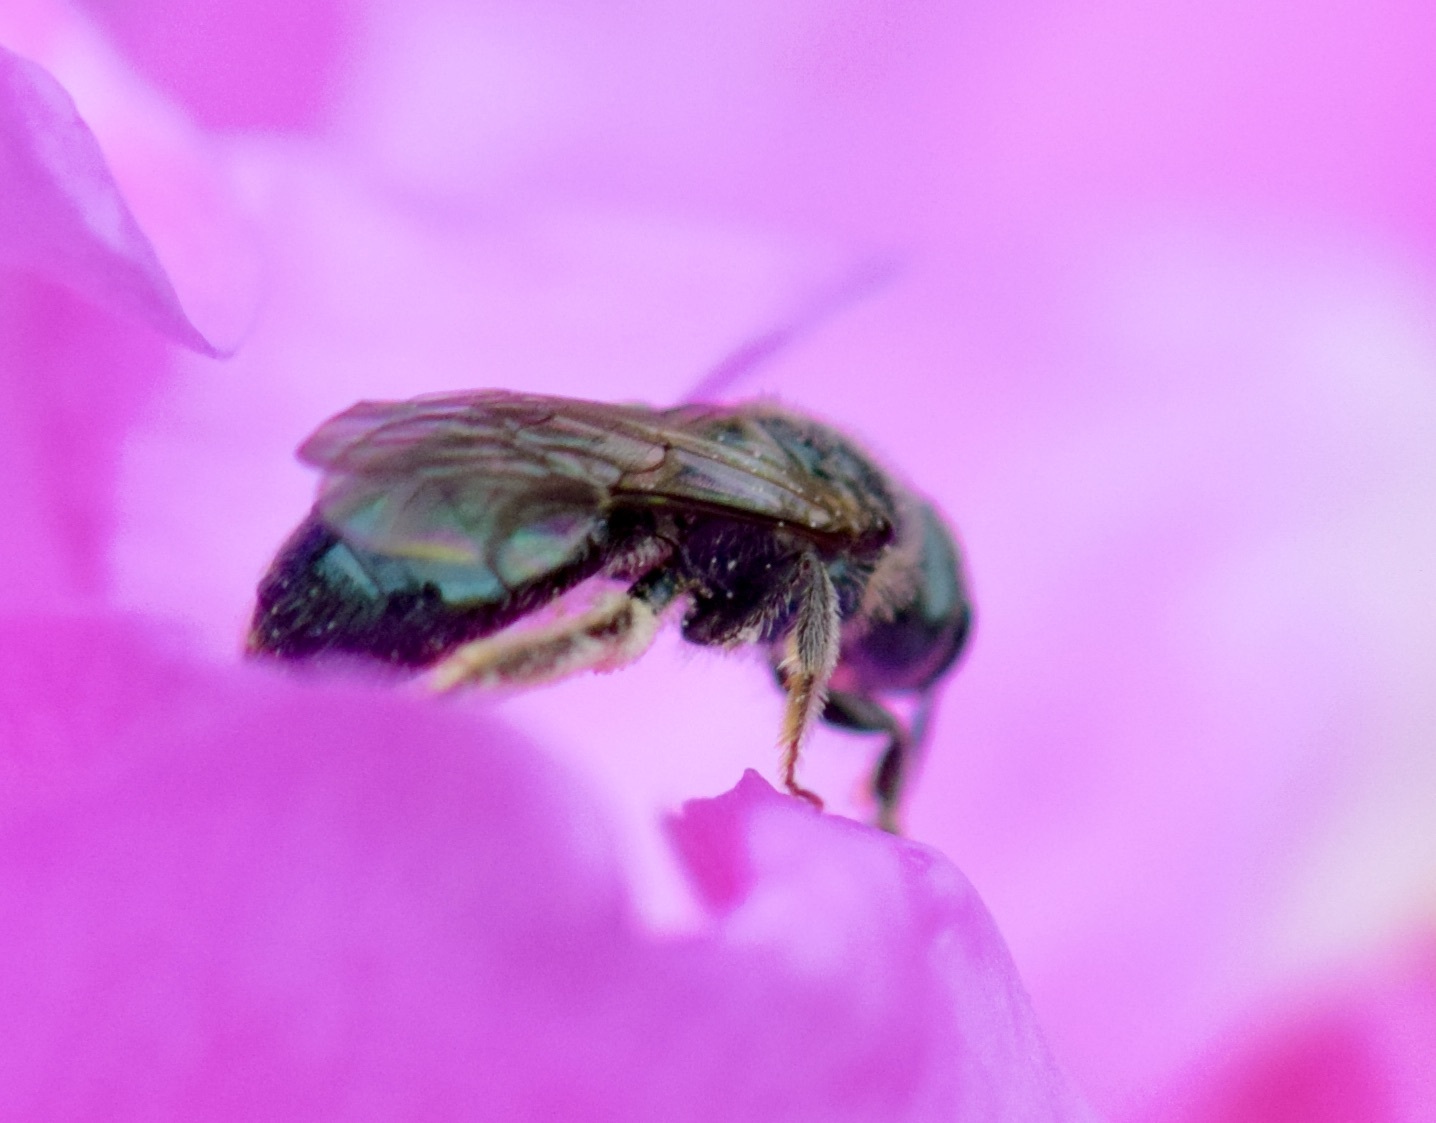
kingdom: Animalia
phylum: Arthropoda
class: Insecta
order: Hymenoptera
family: Halictidae
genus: Lasioglossum
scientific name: Lasioglossum coeruleum
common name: Deep-blue sweat bee
